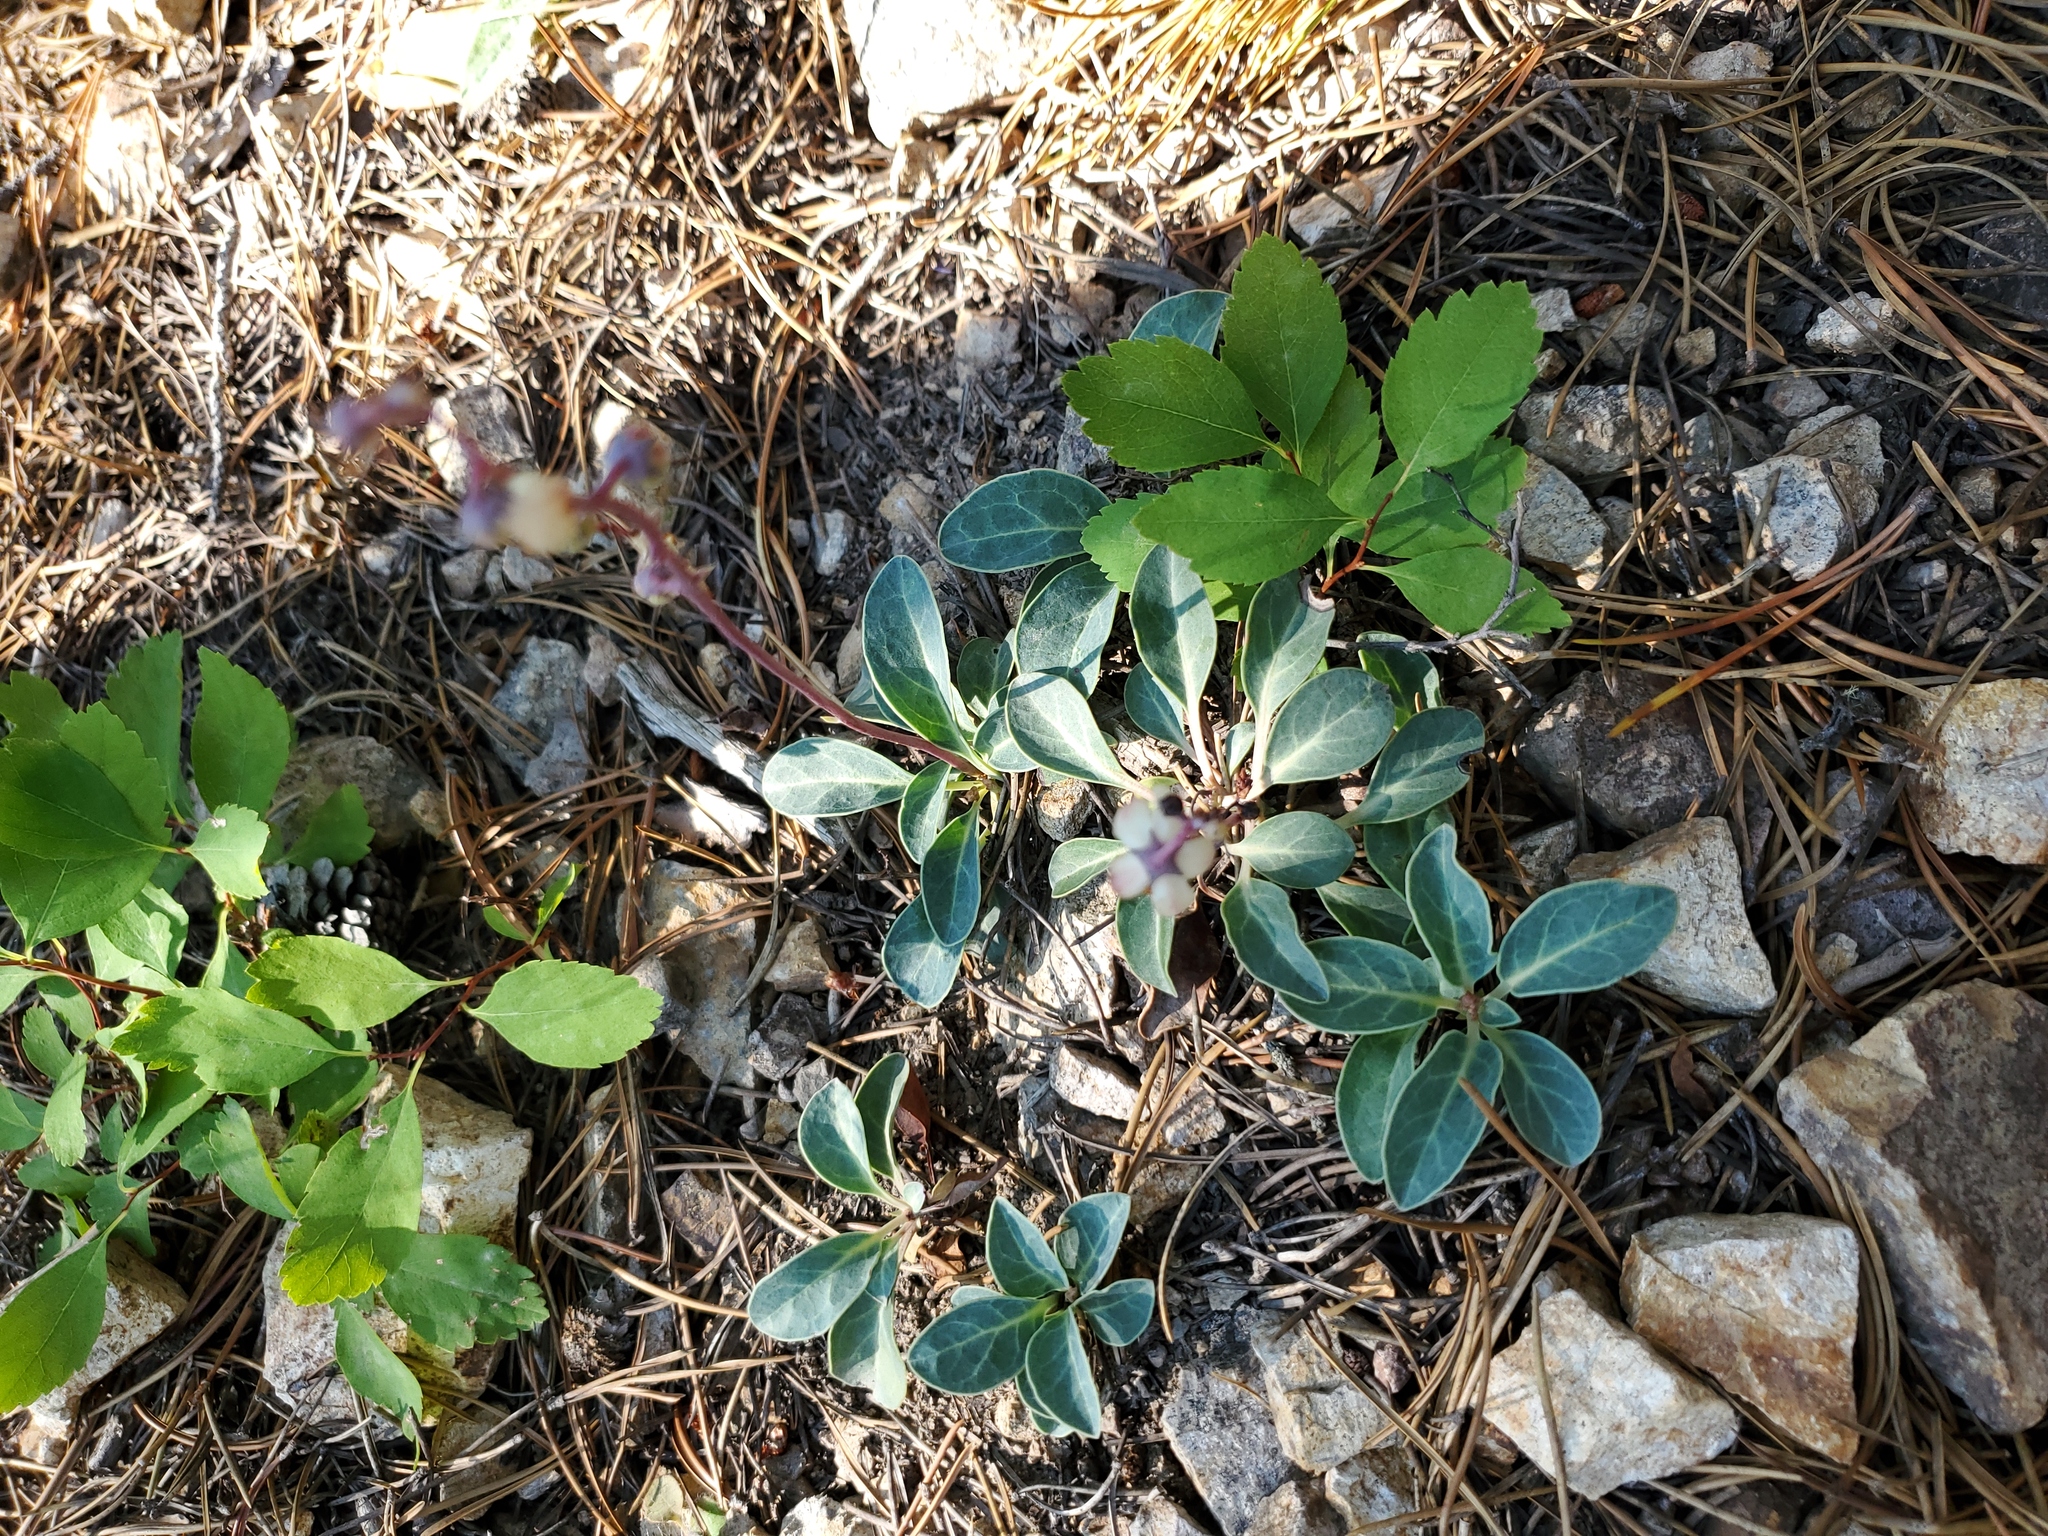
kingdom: Plantae
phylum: Tracheophyta
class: Magnoliopsida
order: Ericales
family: Ericaceae
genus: Pyrola
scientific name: Pyrola dentata
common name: Tooth-leaved wintergreen
